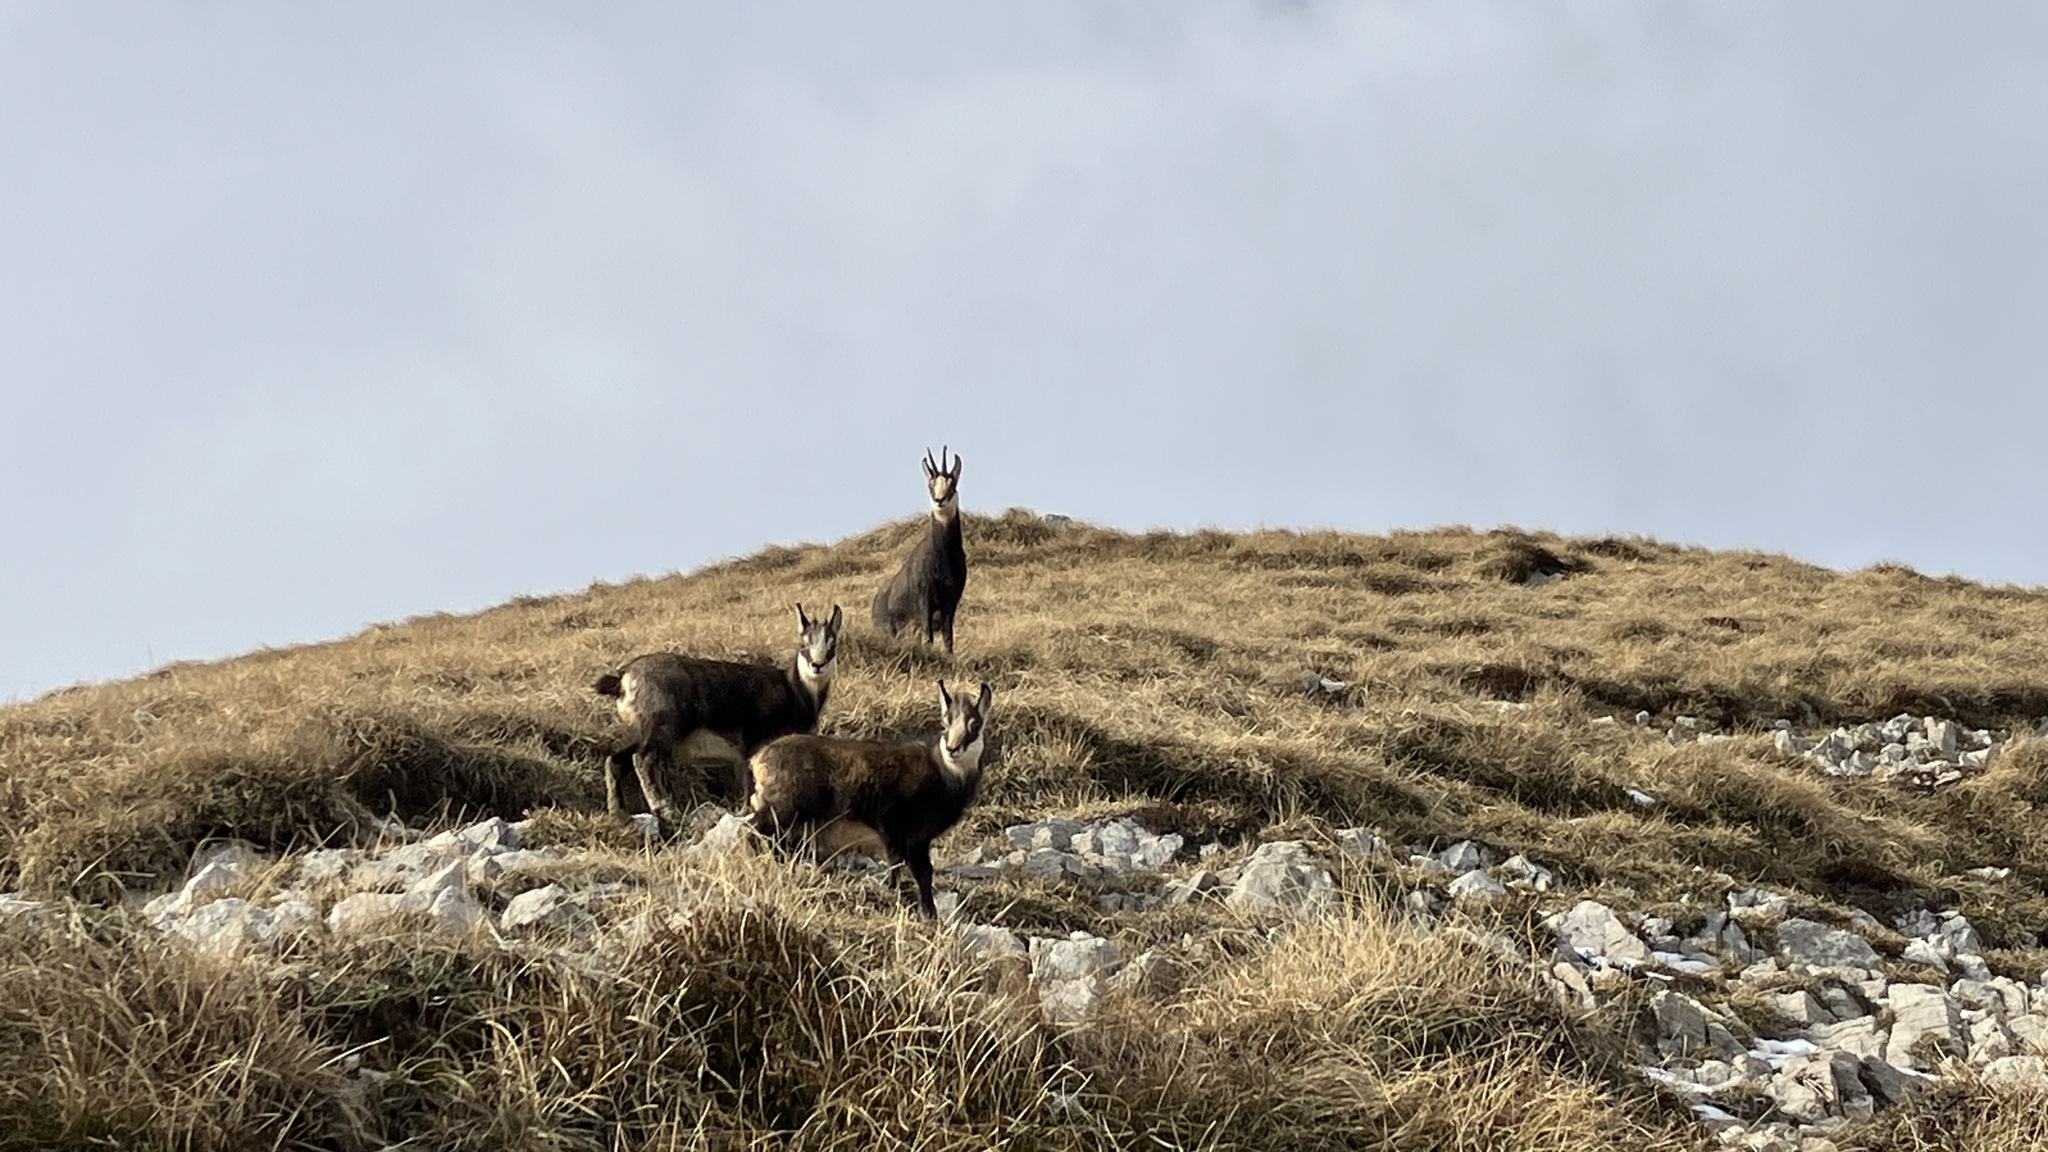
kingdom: Animalia
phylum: Chordata
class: Mammalia
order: Artiodactyla
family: Bovidae
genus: Rupicapra
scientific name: Rupicapra rupicapra
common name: Chamois
